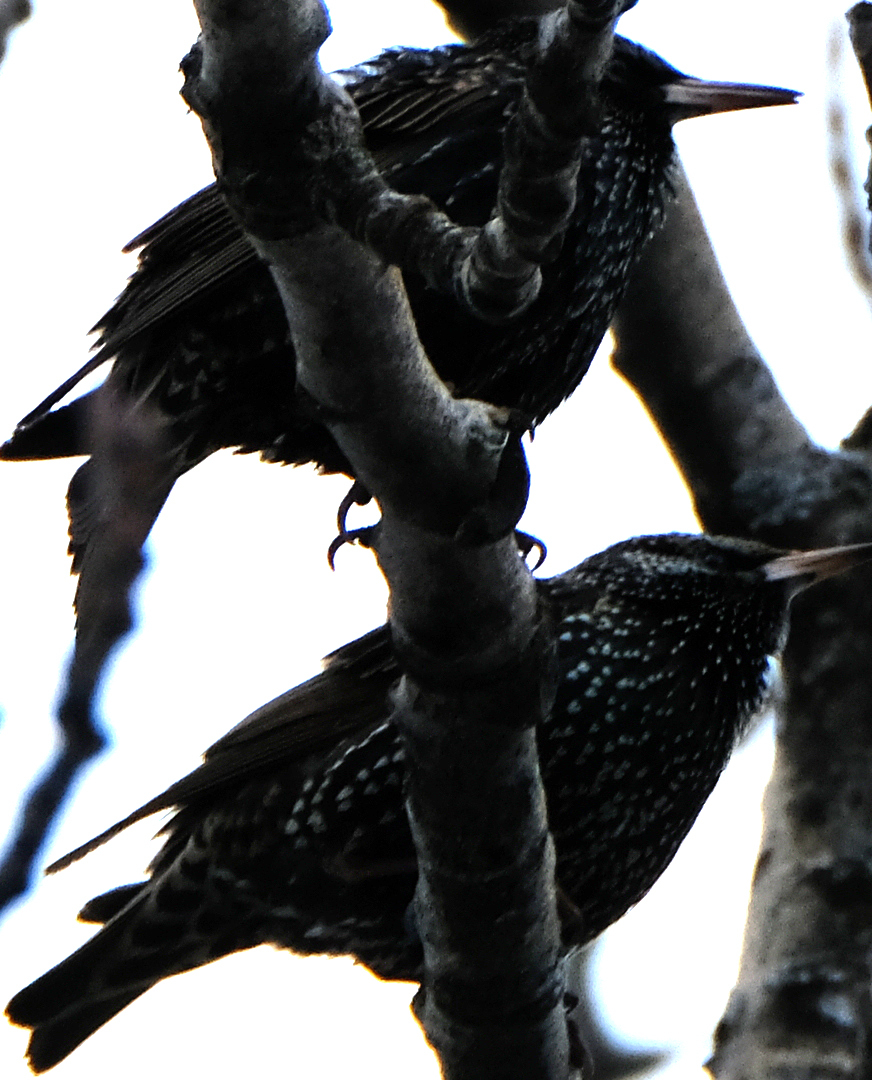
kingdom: Animalia
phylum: Chordata
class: Aves
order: Passeriformes
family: Sturnidae
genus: Sturnus
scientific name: Sturnus vulgaris
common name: Common starling
